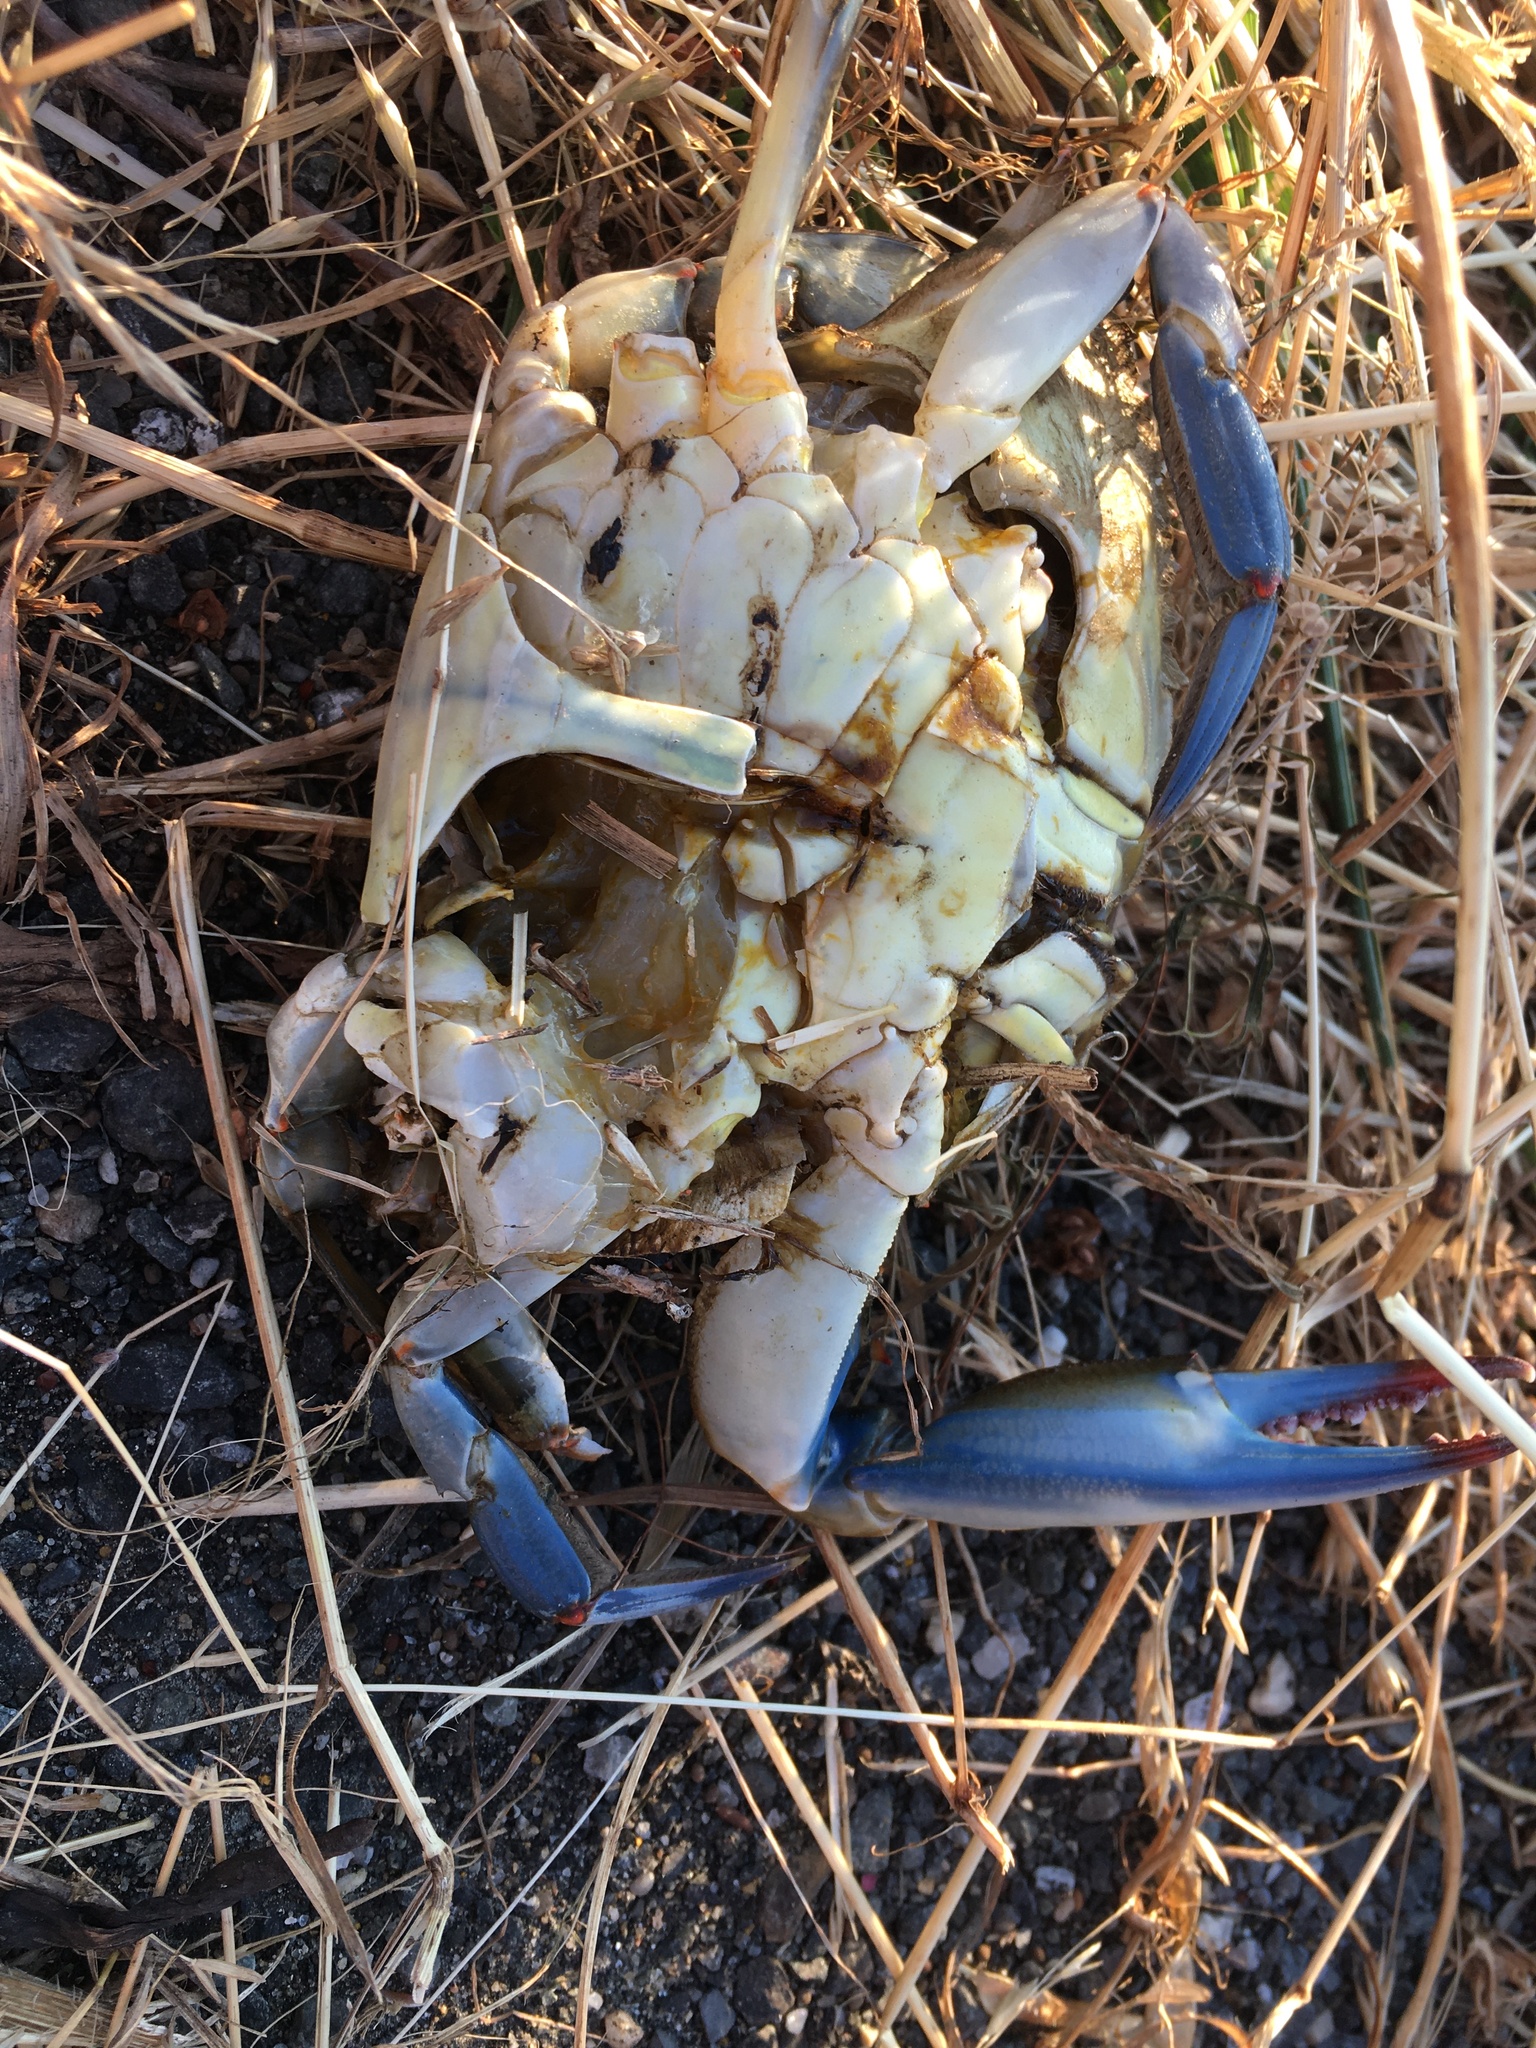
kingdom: Animalia
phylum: Arthropoda
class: Malacostraca
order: Decapoda
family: Portunidae
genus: Callinectes
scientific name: Callinectes sapidus
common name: Blue crab
